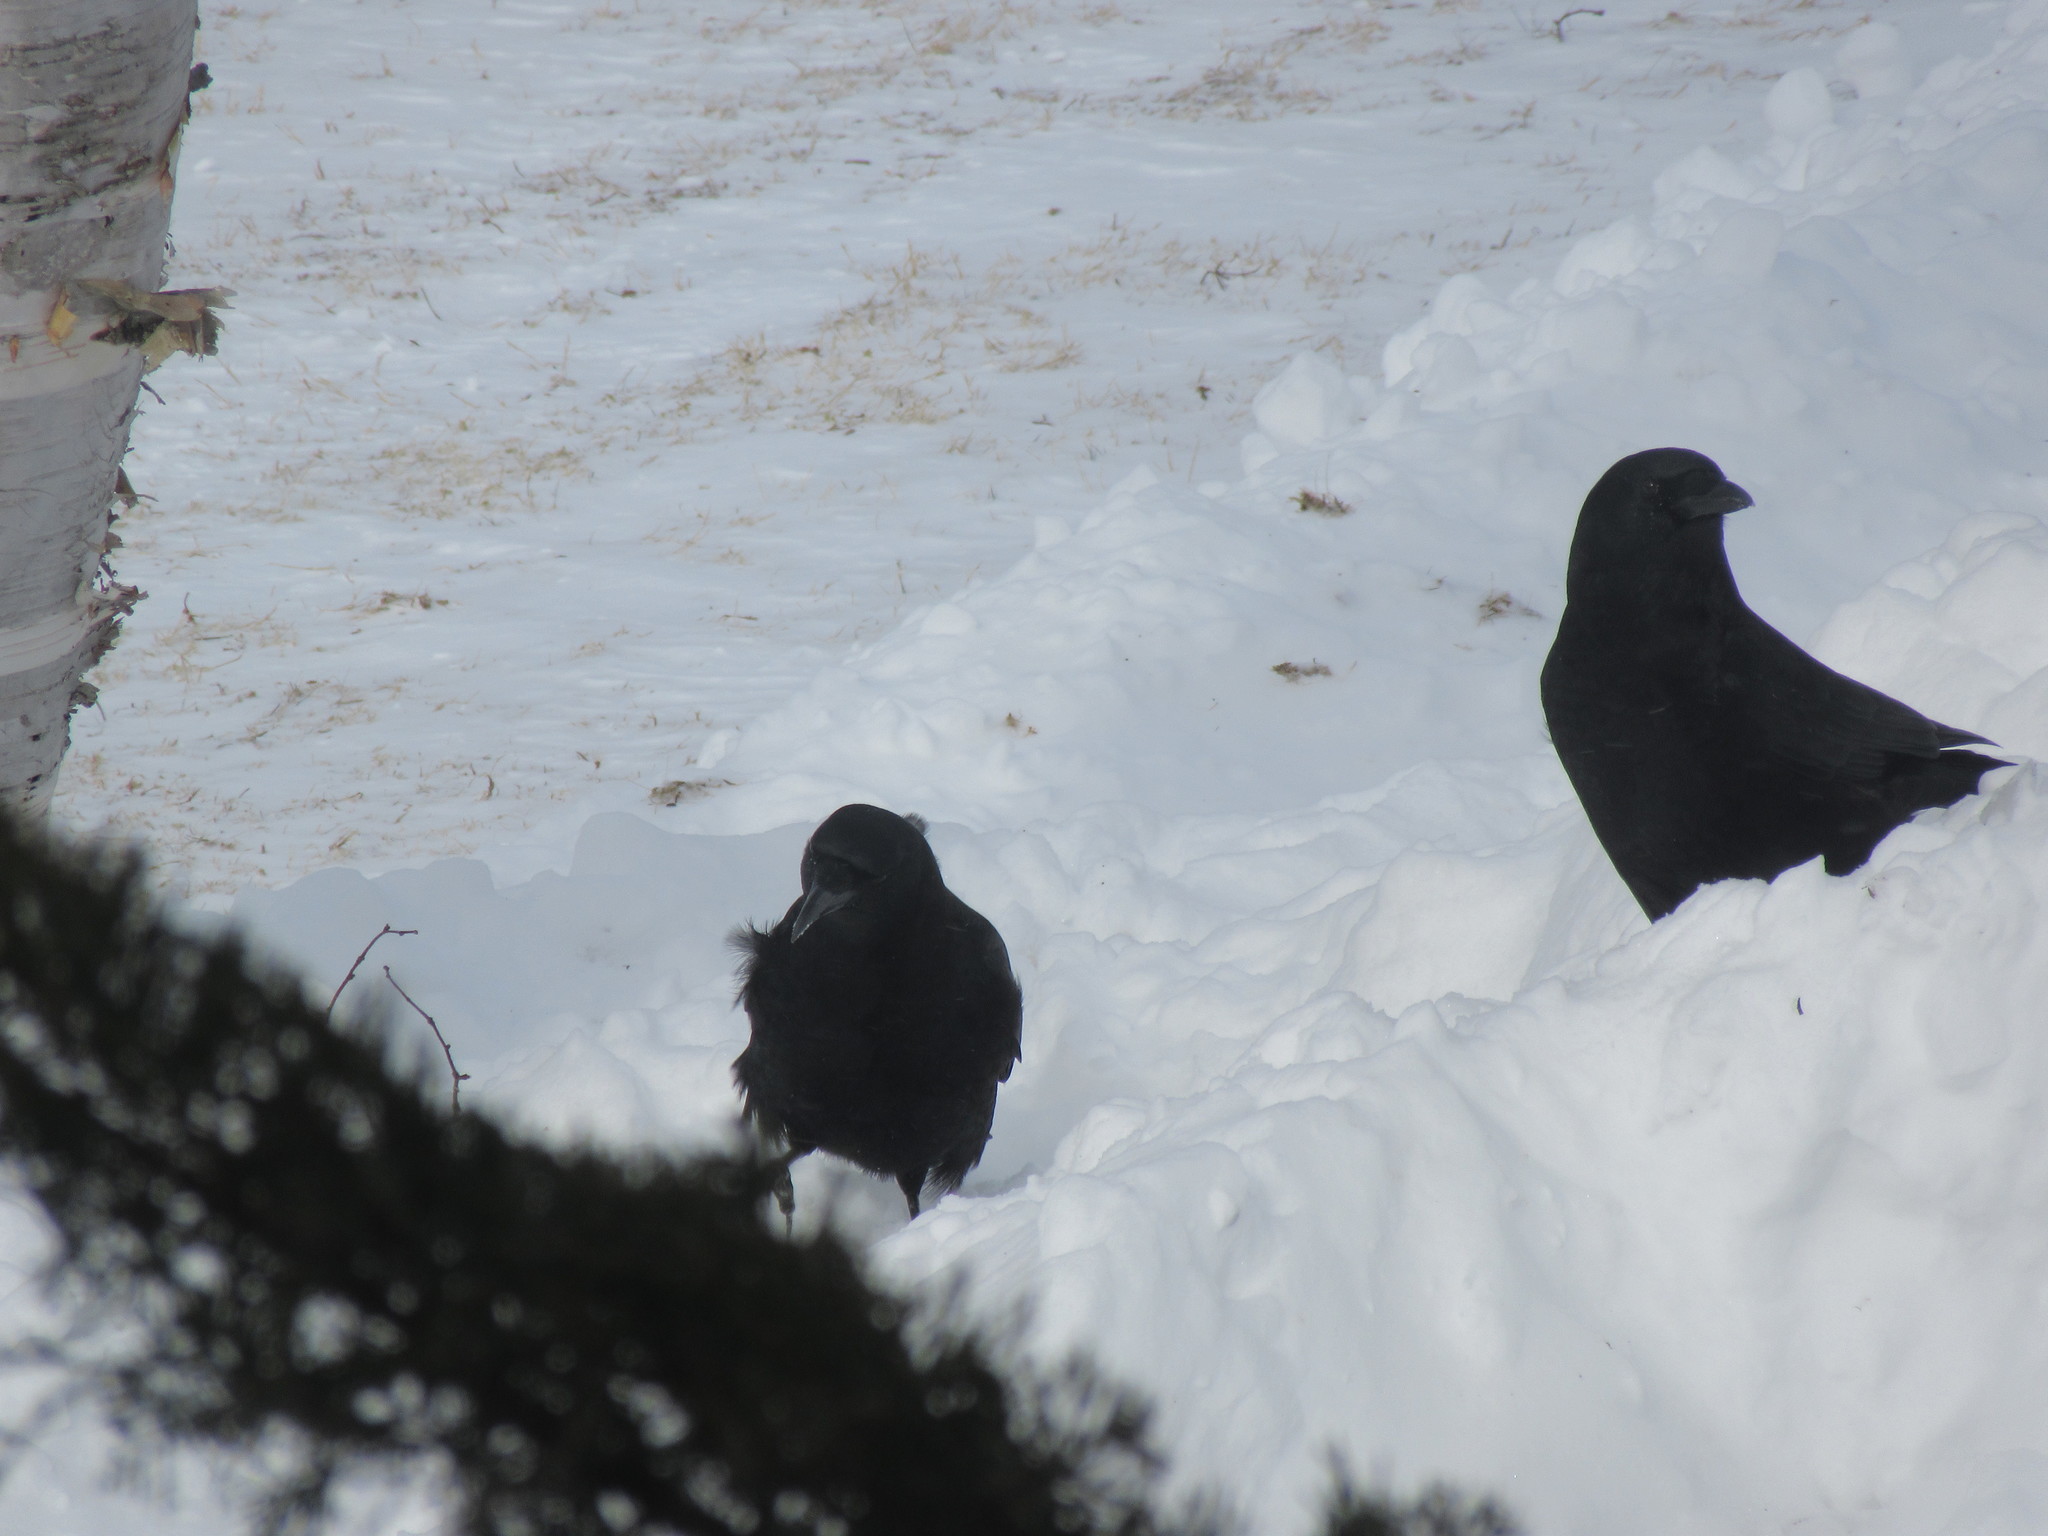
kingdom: Animalia
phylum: Chordata
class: Aves
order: Passeriformes
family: Corvidae
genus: Corvus
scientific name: Corvus brachyrhynchos
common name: American crow
